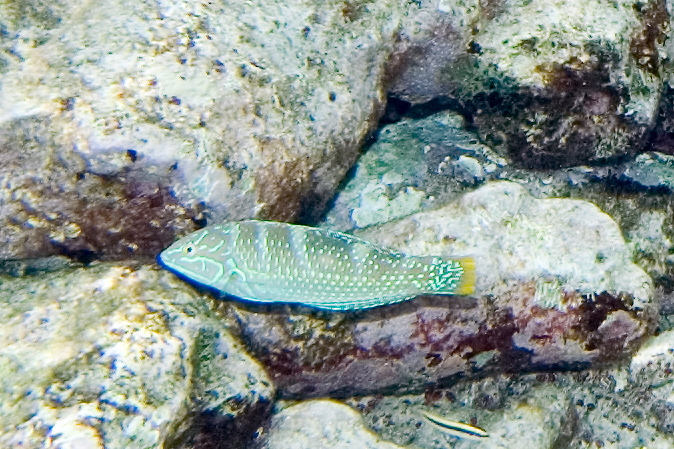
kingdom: Animalia
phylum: Chordata
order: Perciformes
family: Labridae
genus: Halichoeres
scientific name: Halichoeres radiatus
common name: Puddingwife
